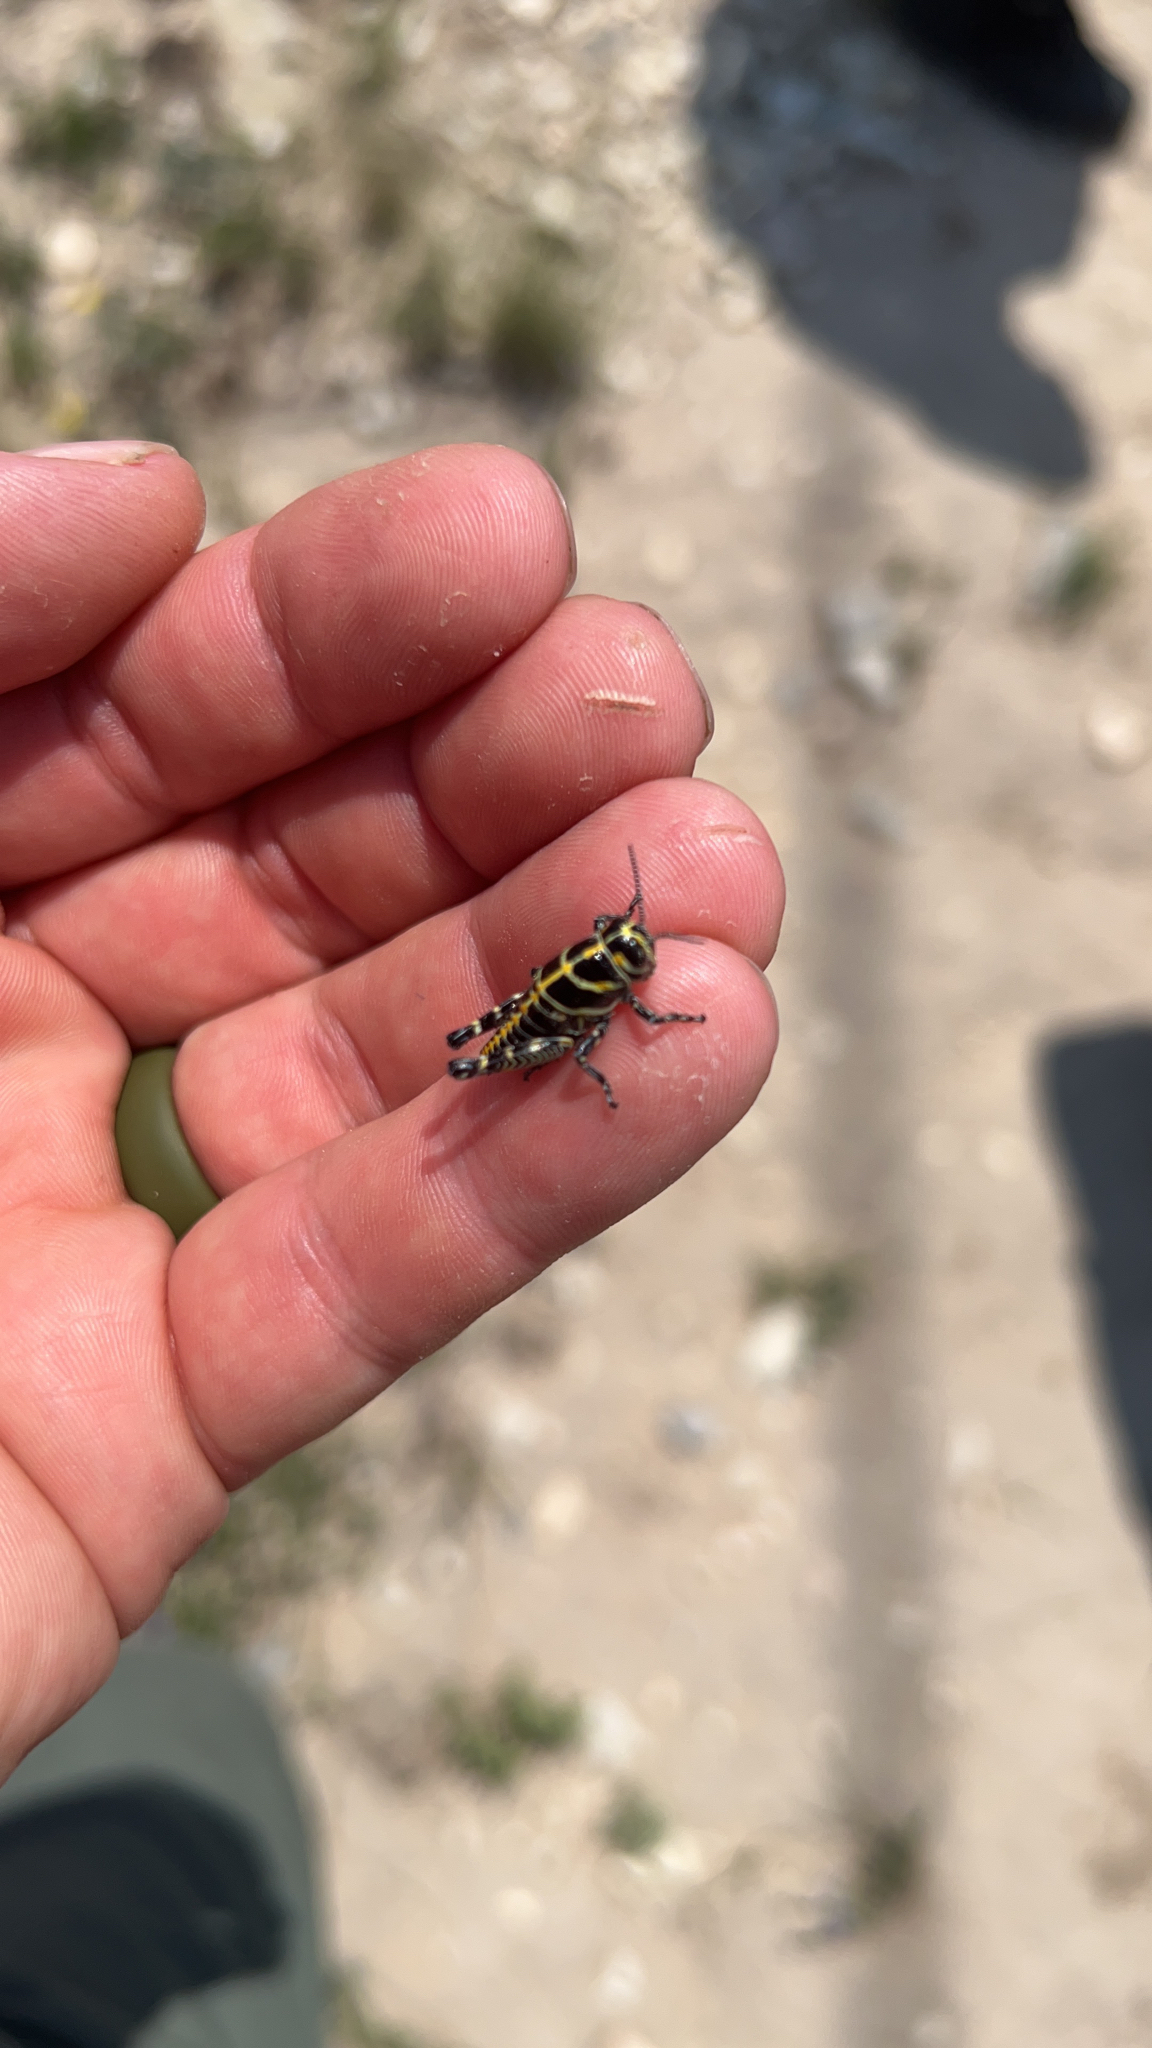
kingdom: Animalia
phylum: Arthropoda
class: Insecta
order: Orthoptera
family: Acrididae
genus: Dactylotum
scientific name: Dactylotum bicolor
